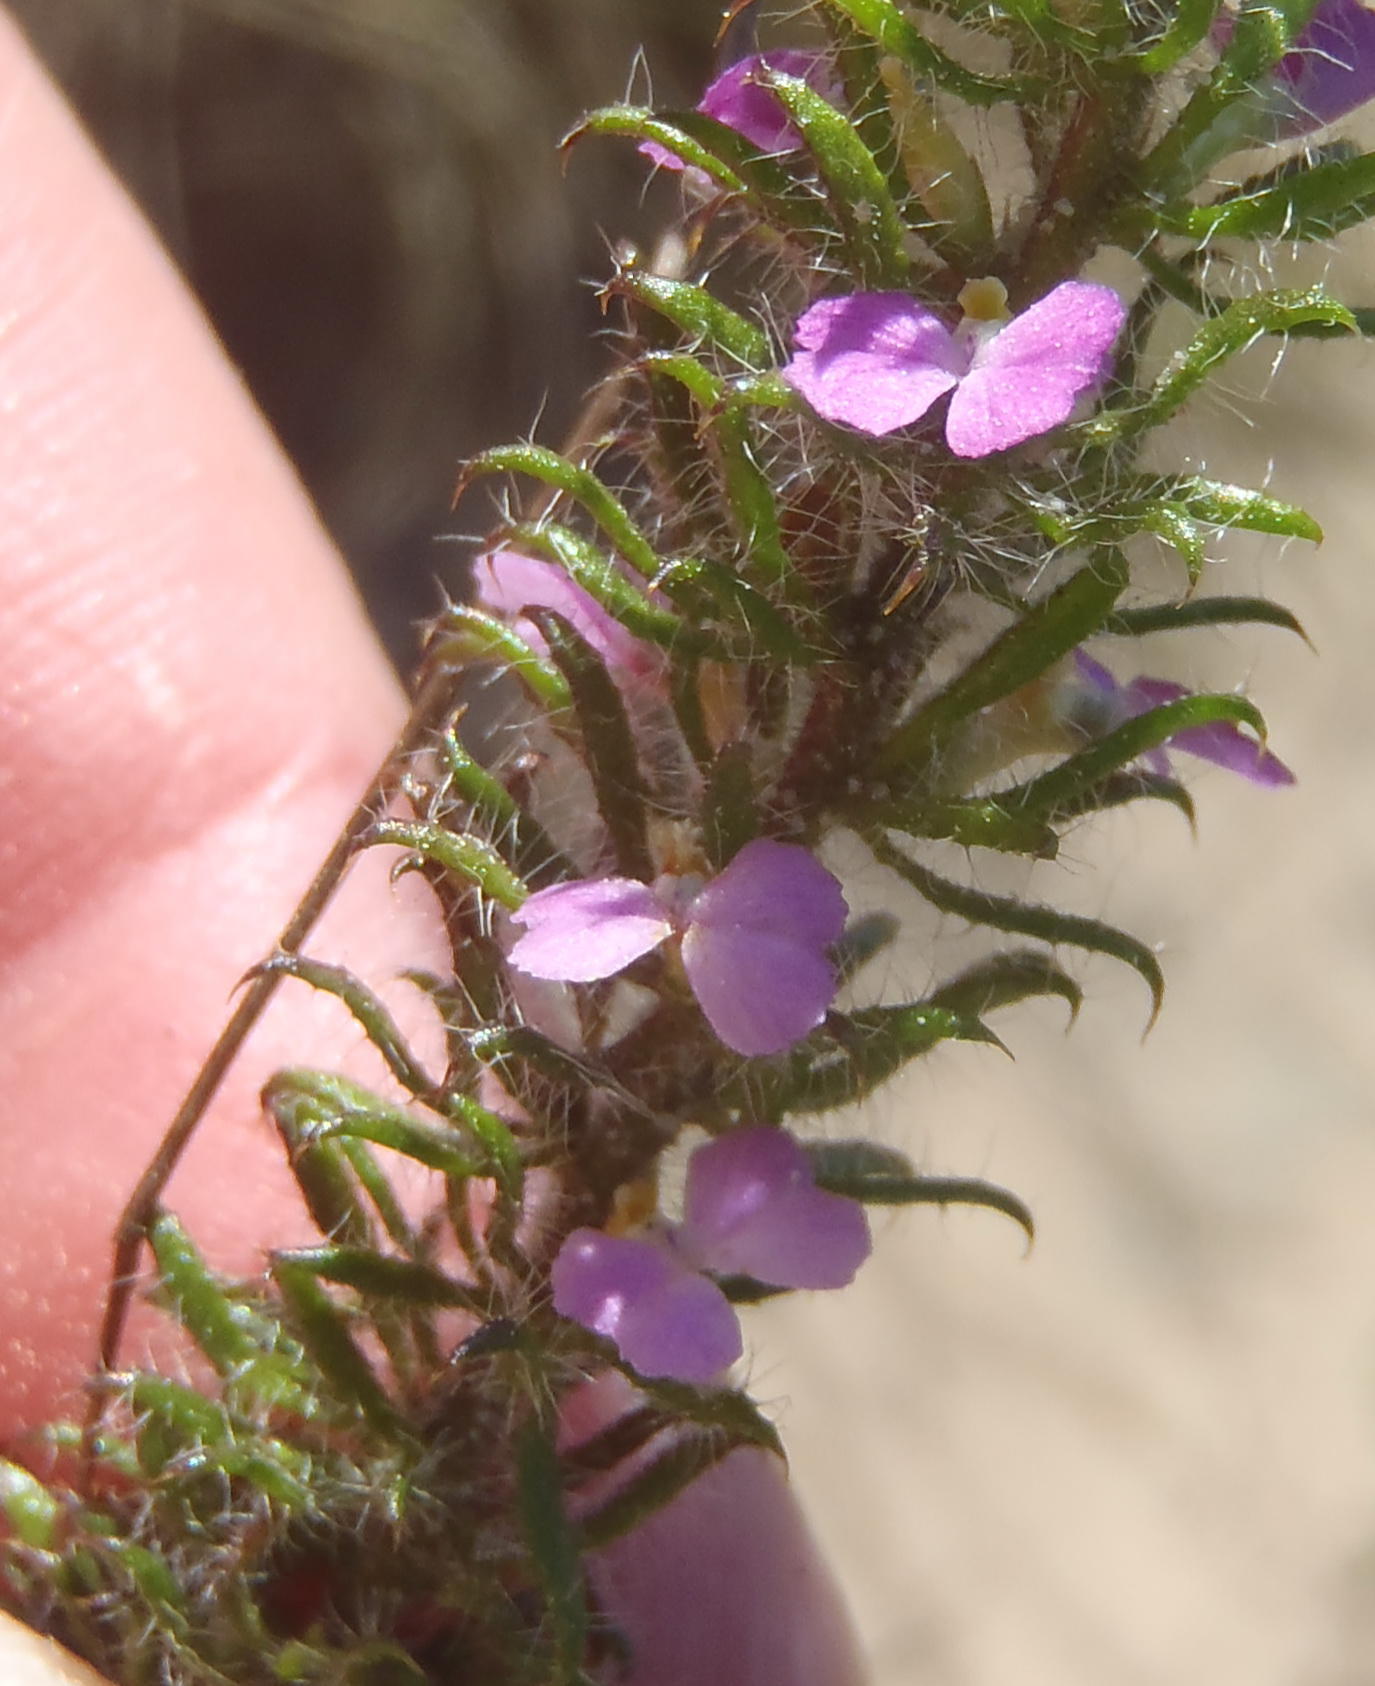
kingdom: Plantae
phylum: Tracheophyta
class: Magnoliopsida
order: Fabales
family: Polygalaceae
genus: Muraltia
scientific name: Muraltia ciliaris
